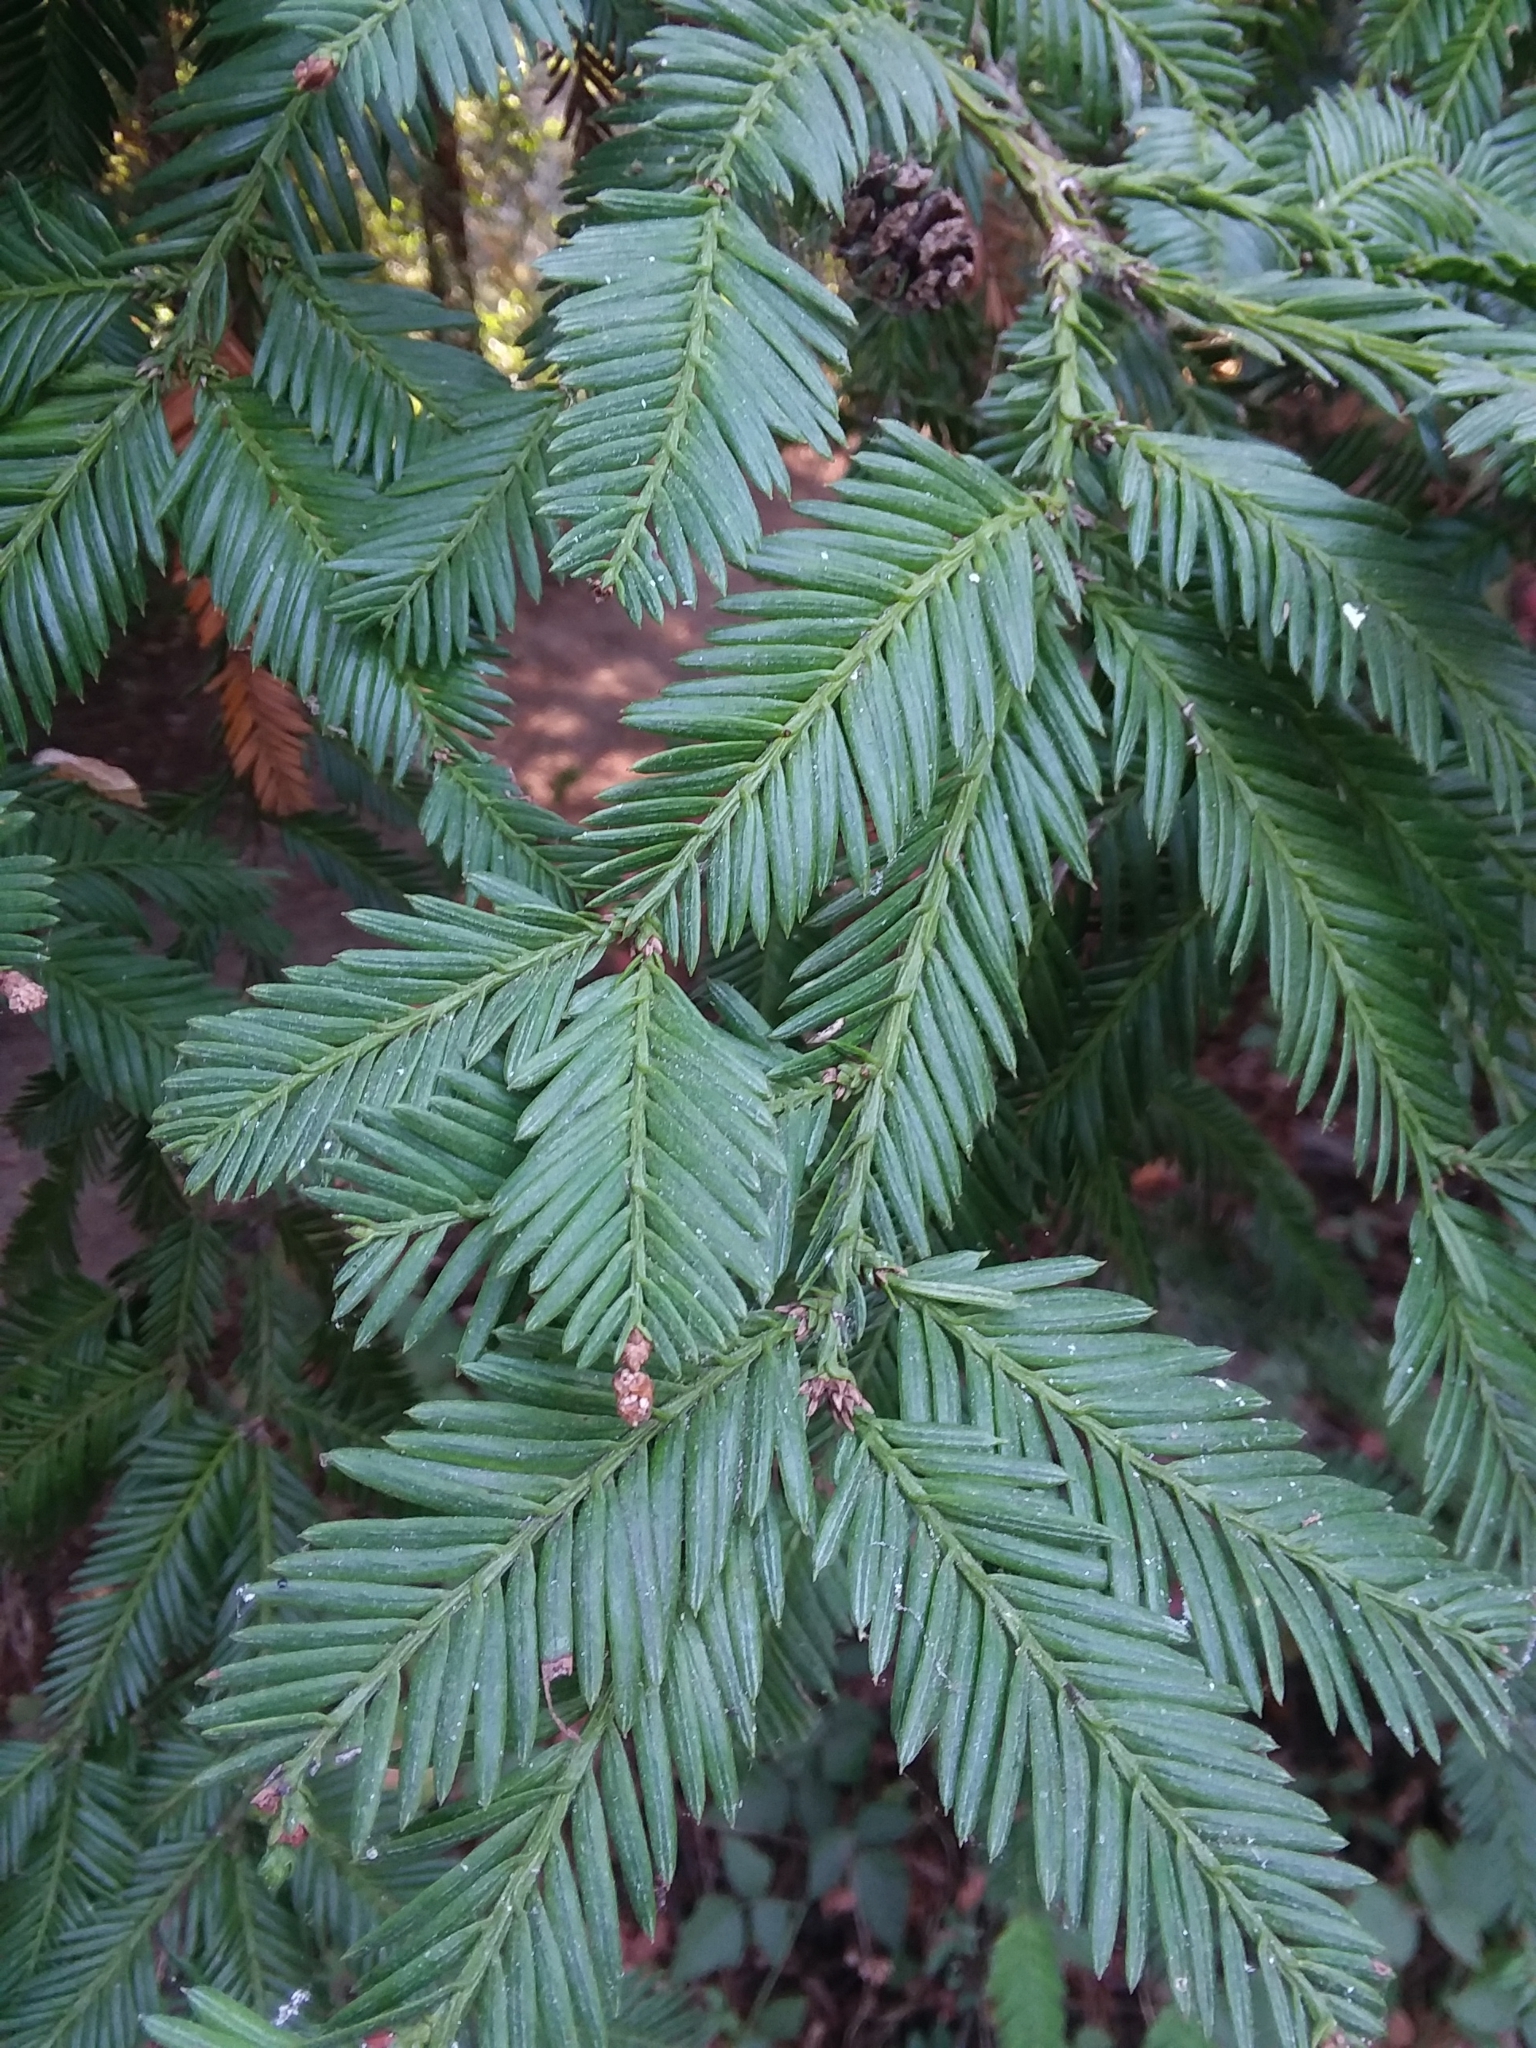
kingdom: Plantae
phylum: Tracheophyta
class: Pinopsida
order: Pinales
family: Cupressaceae
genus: Sequoia
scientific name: Sequoia sempervirens
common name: Coast redwood
